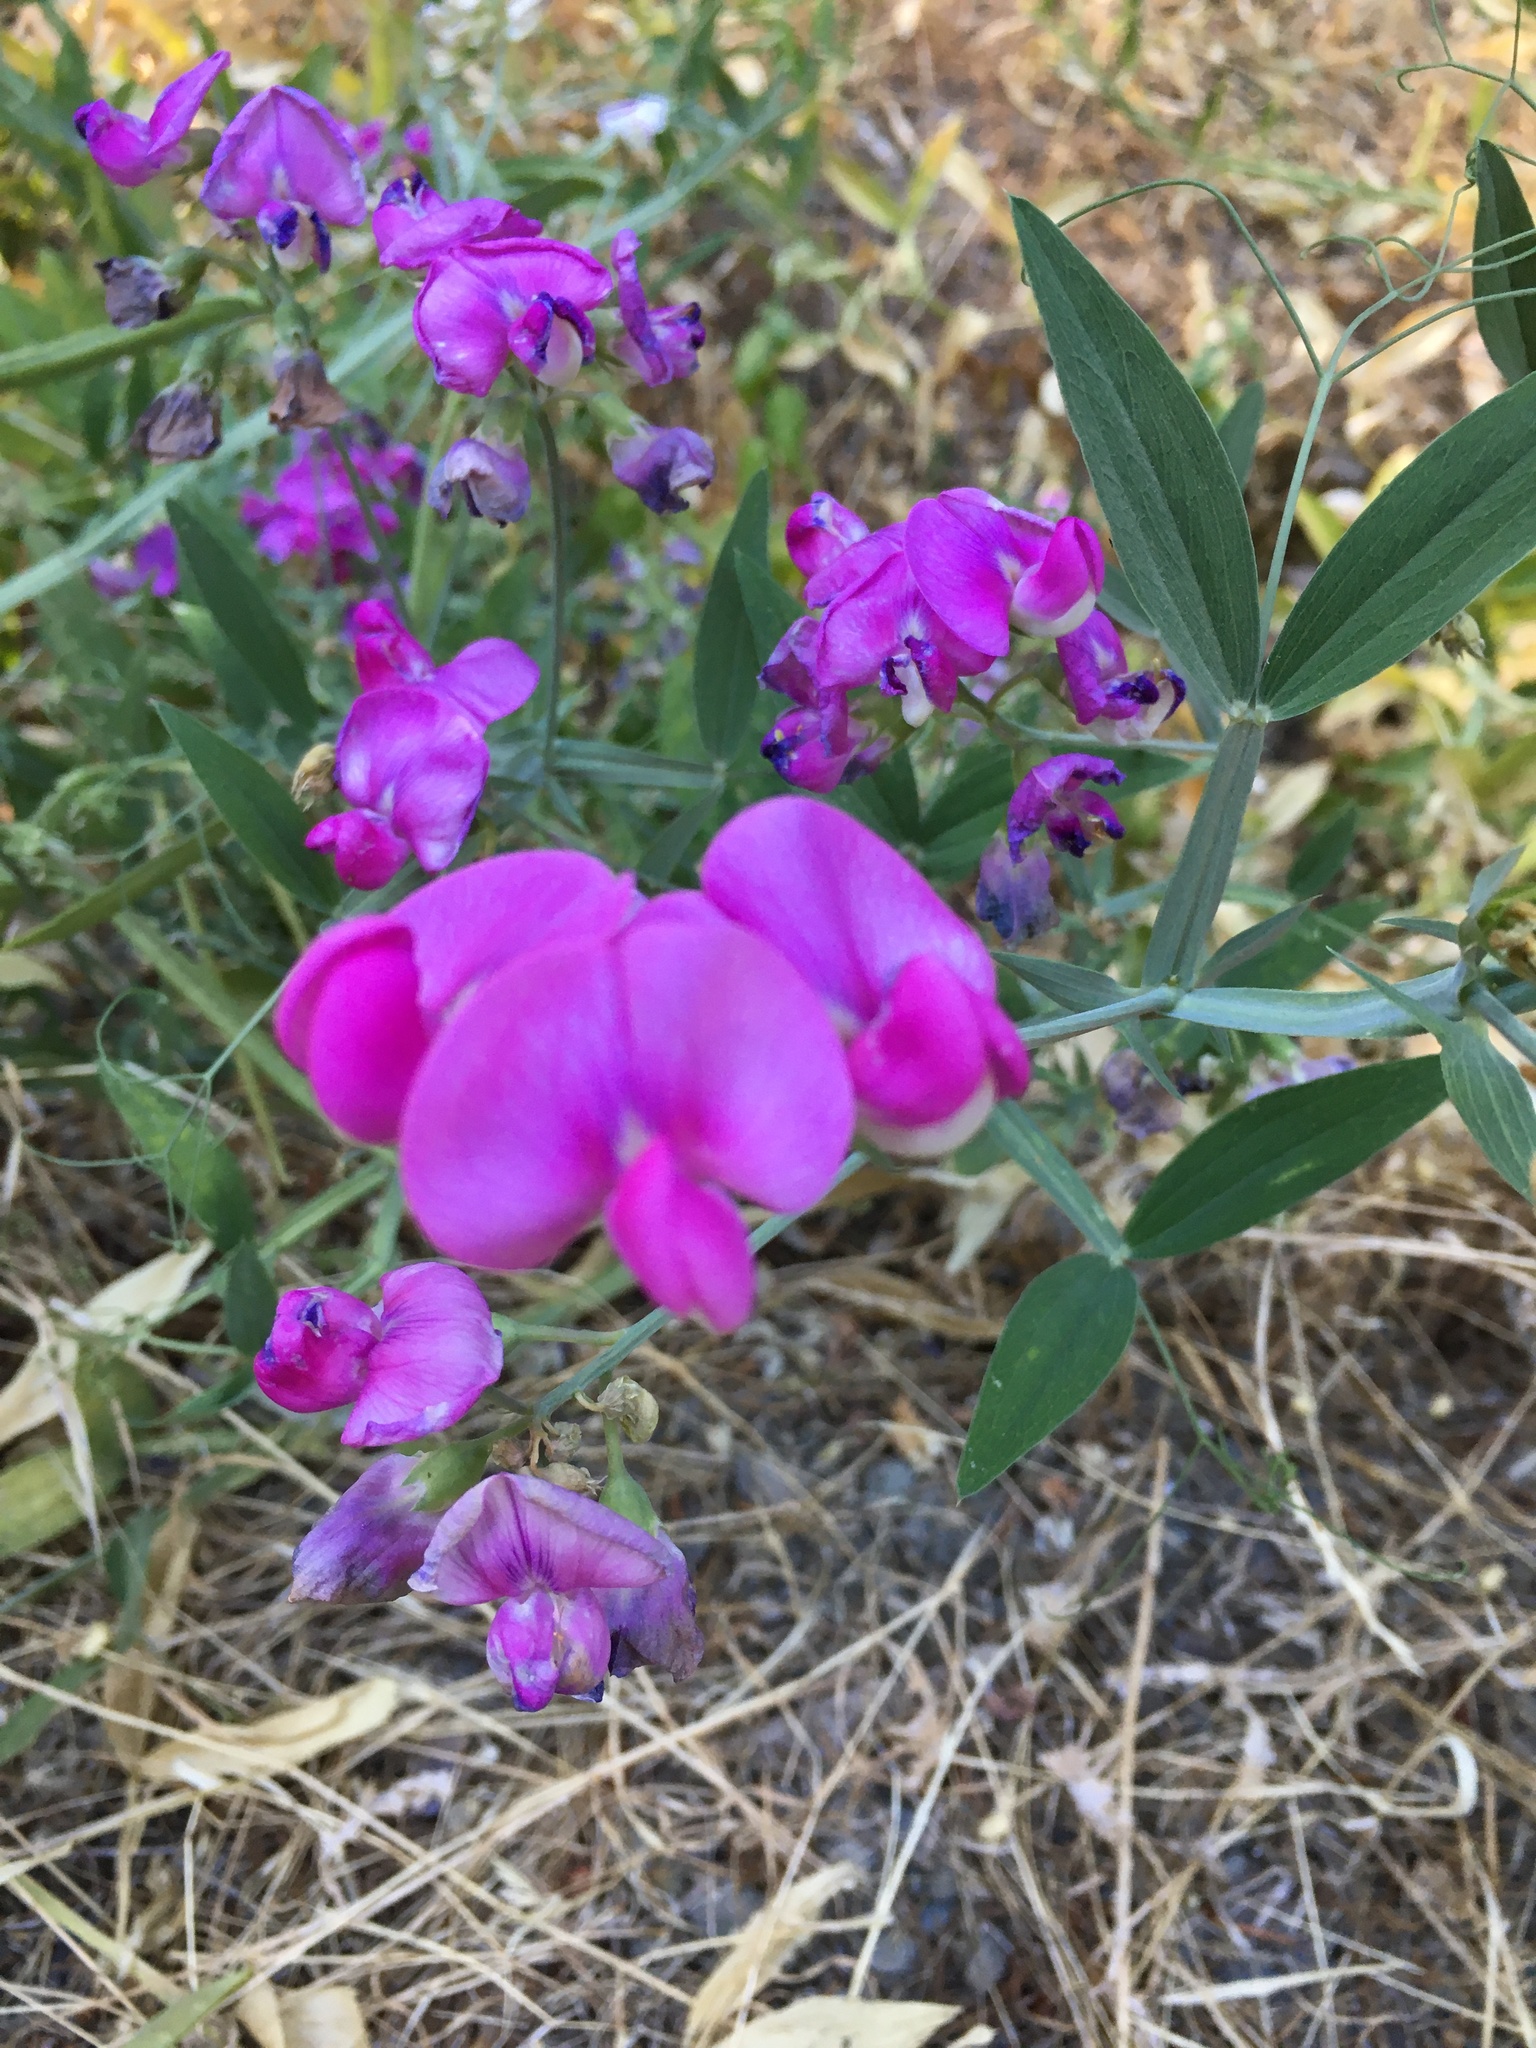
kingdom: Plantae
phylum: Tracheophyta
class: Magnoliopsida
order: Fabales
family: Fabaceae
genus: Lathyrus
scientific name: Lathyrus latifolius
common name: Perennial pea
